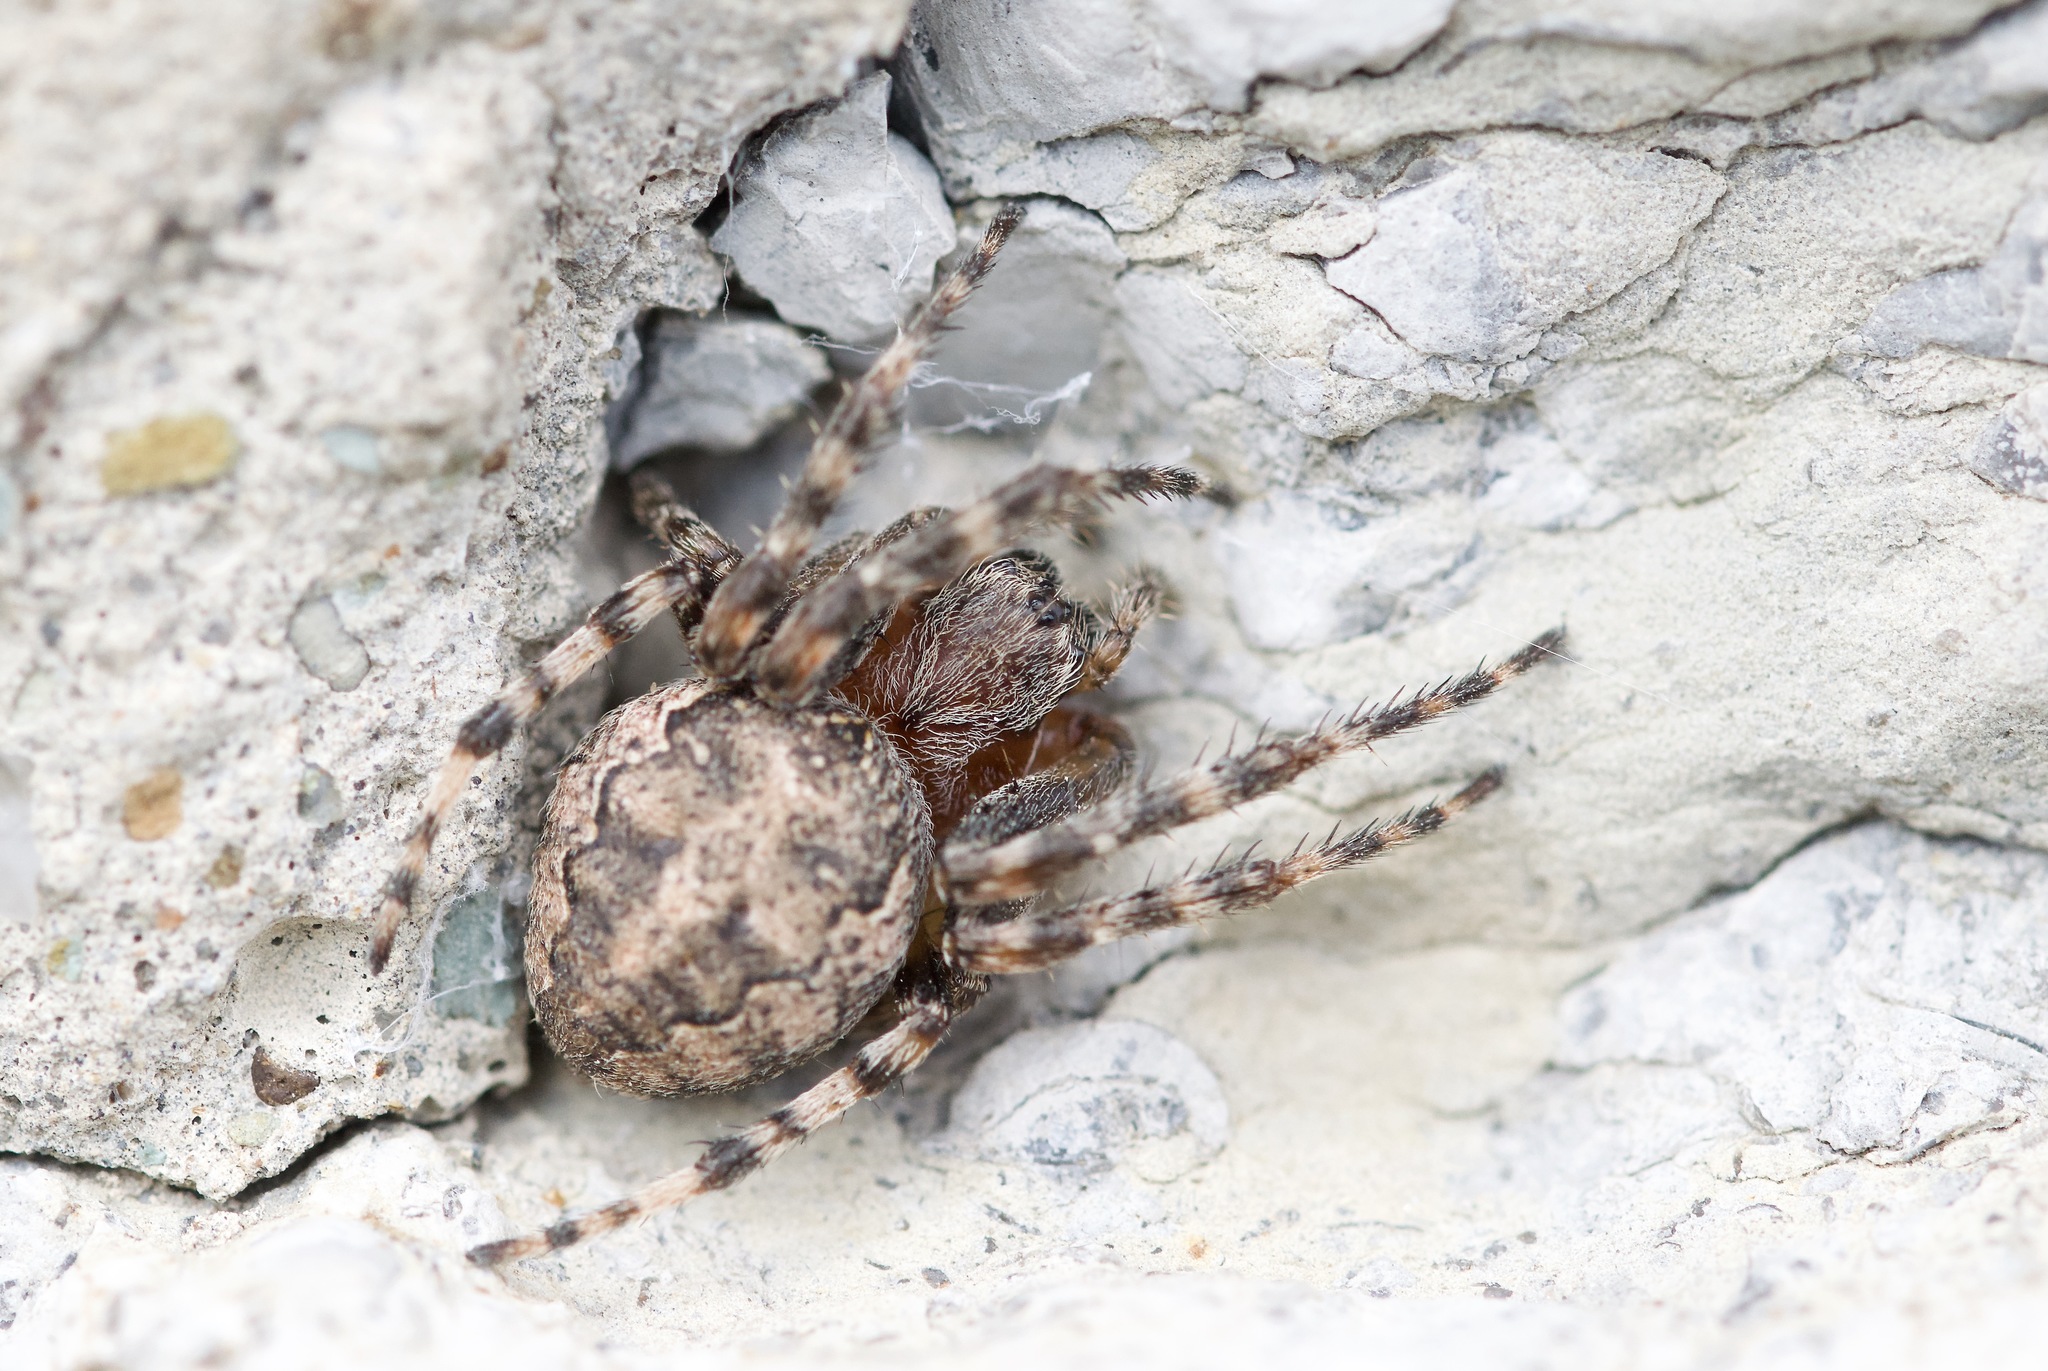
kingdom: Animalia
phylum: Arthropoda
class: Arachnida
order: Araneae
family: Araneidae
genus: Larinioides
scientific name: Larinioides patagiatus
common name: Ornamental orbweaver
